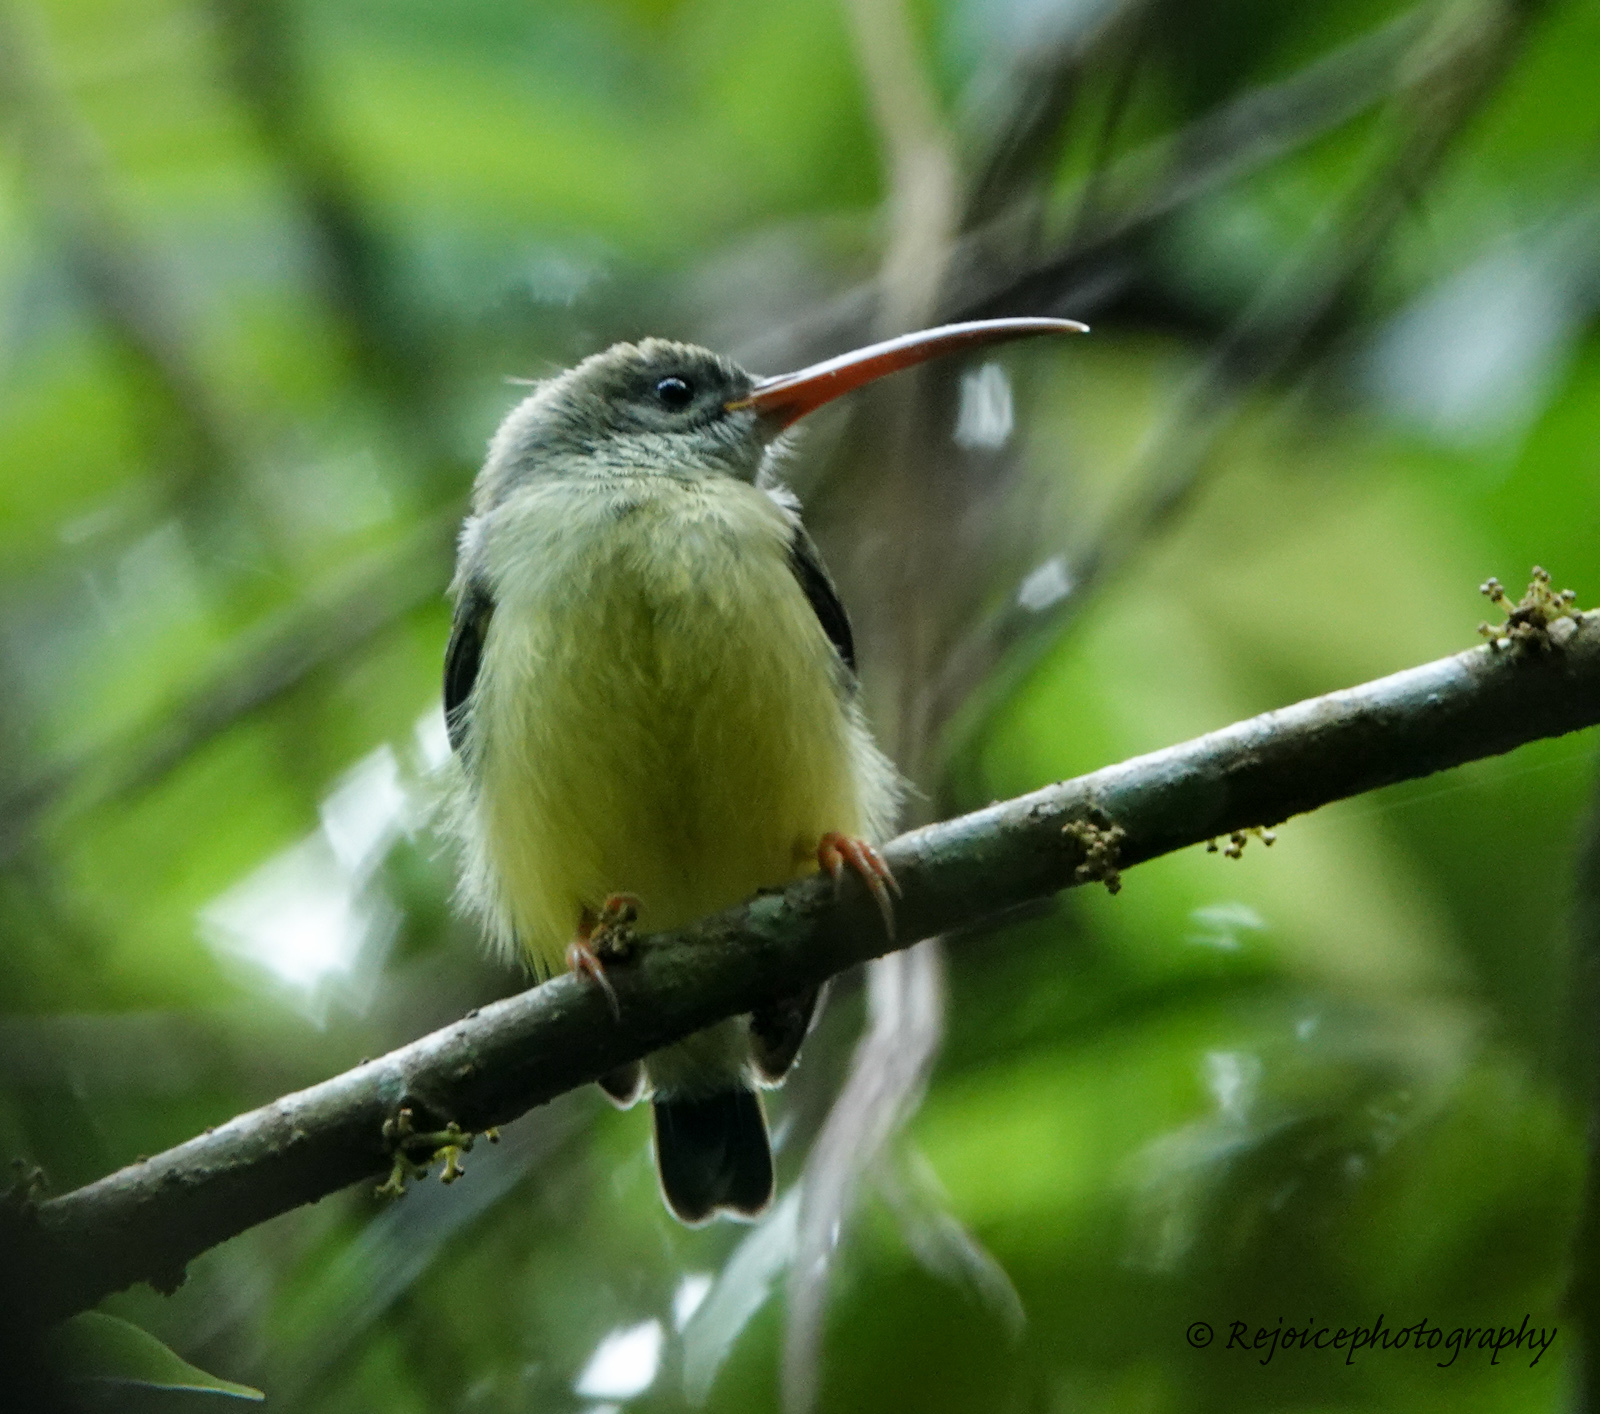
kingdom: Animalia
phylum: Chordata
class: Aves
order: Passeriformes
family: Nectariniidae
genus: Arachnothera
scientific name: Arachnothera longirostra
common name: Little spiderhunter
